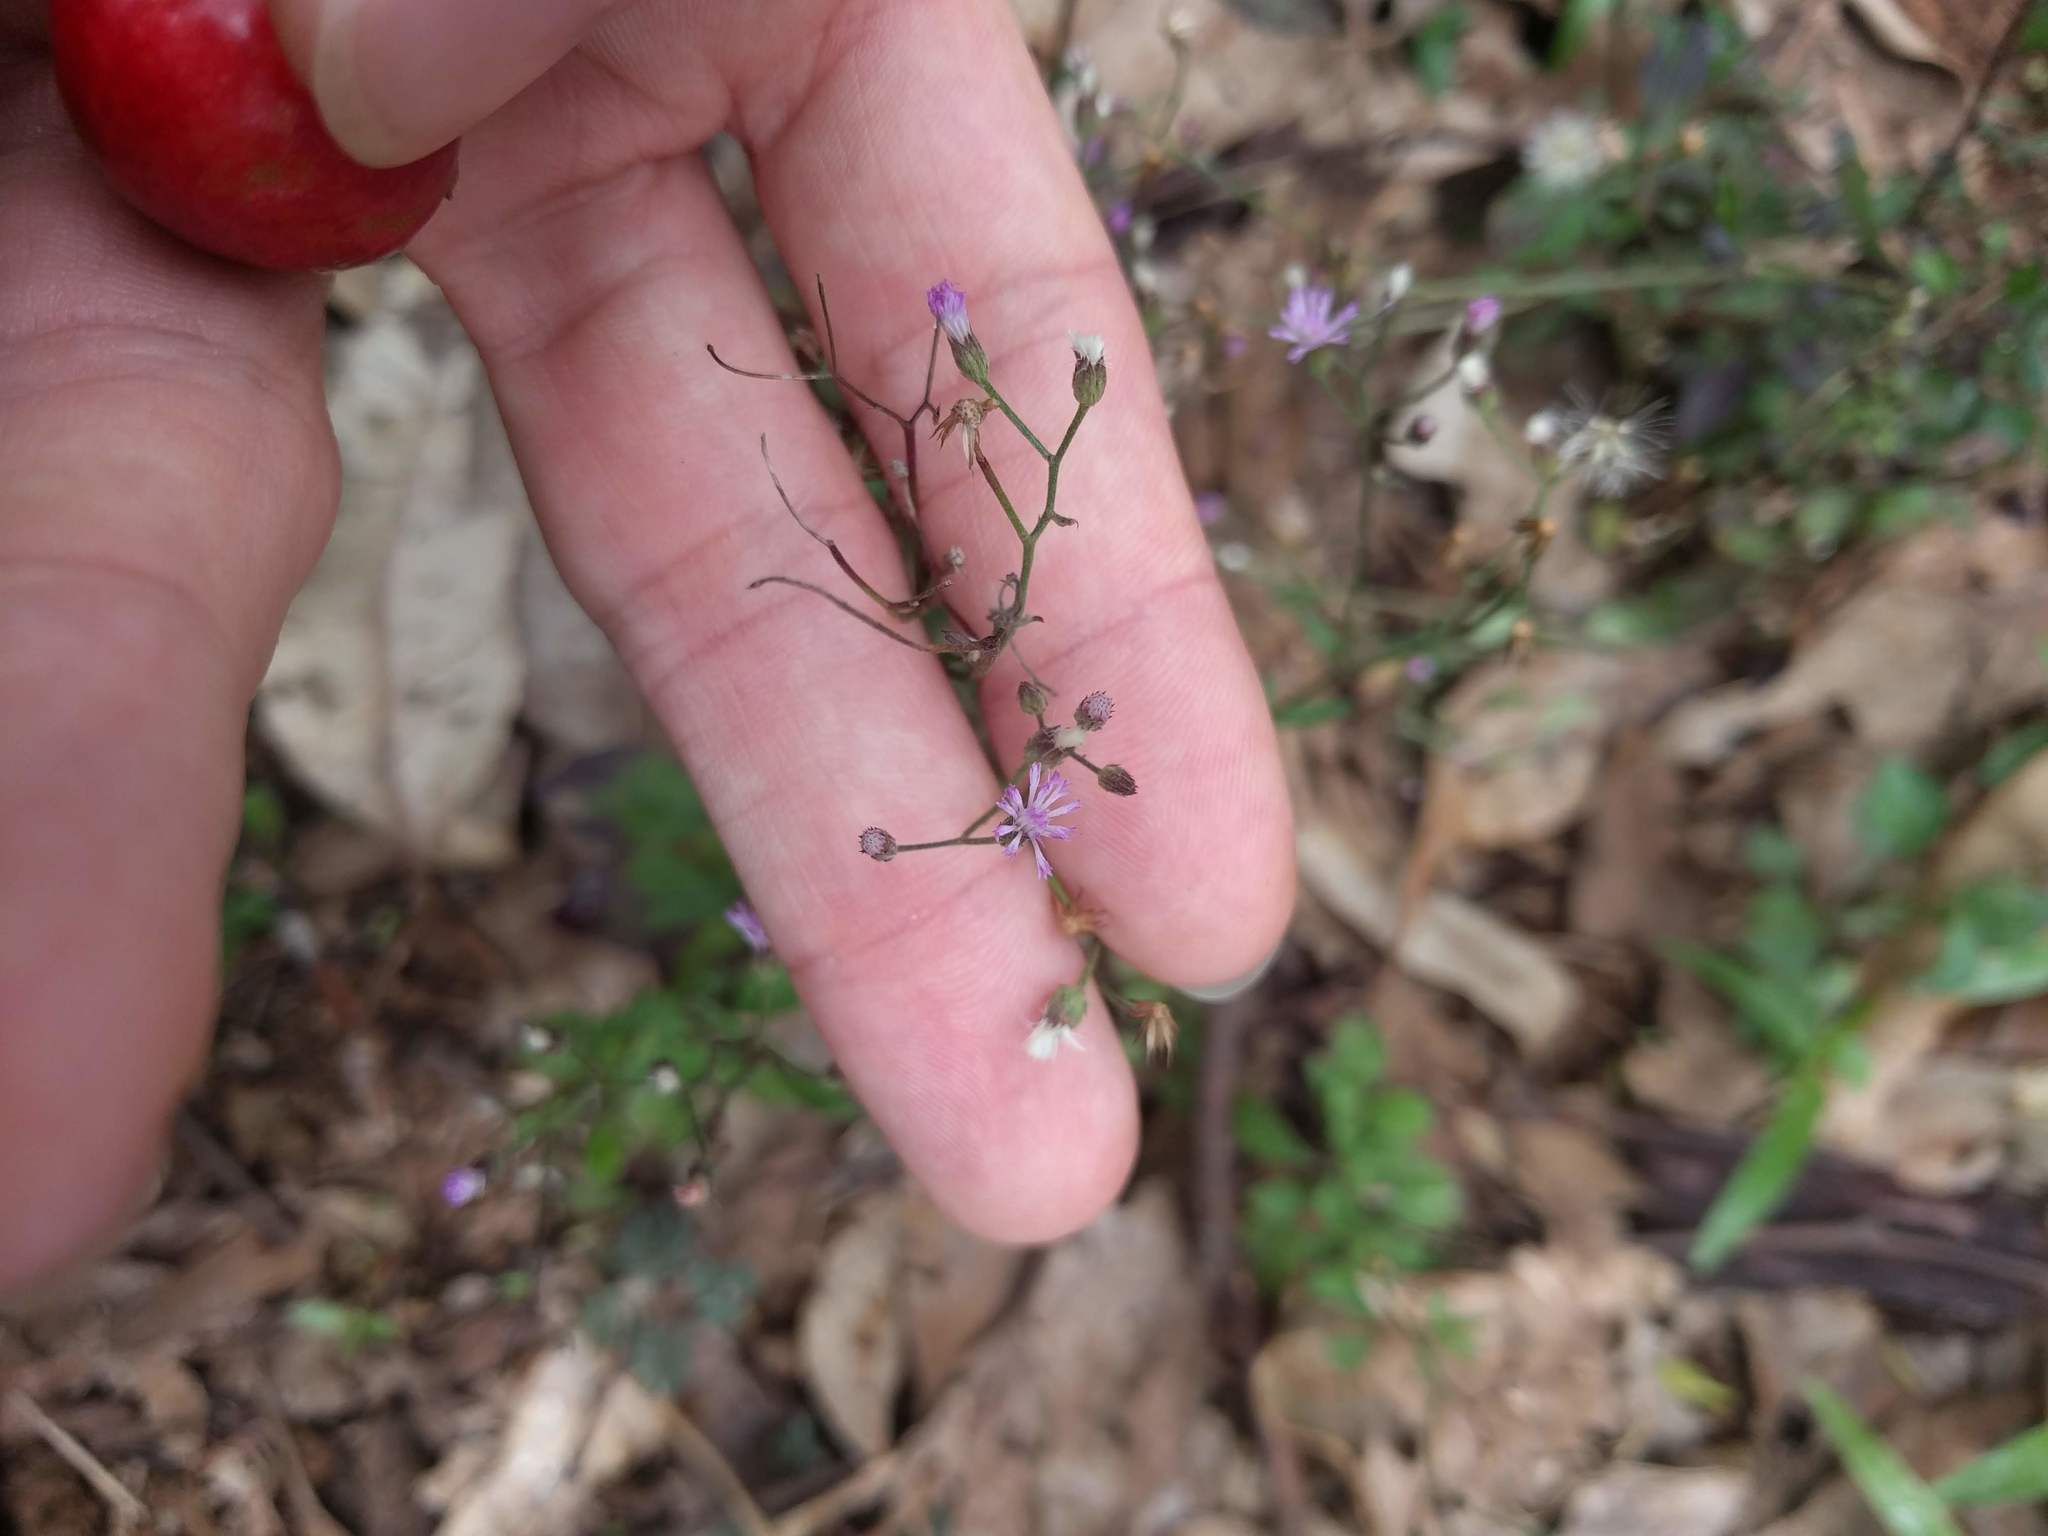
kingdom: Plantae
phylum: Tracheophyta
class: Magnoliopsida
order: Asterales
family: Asteraceae
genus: Cyanthillium
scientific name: Cyanthillium cinereum
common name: Little ironweed
